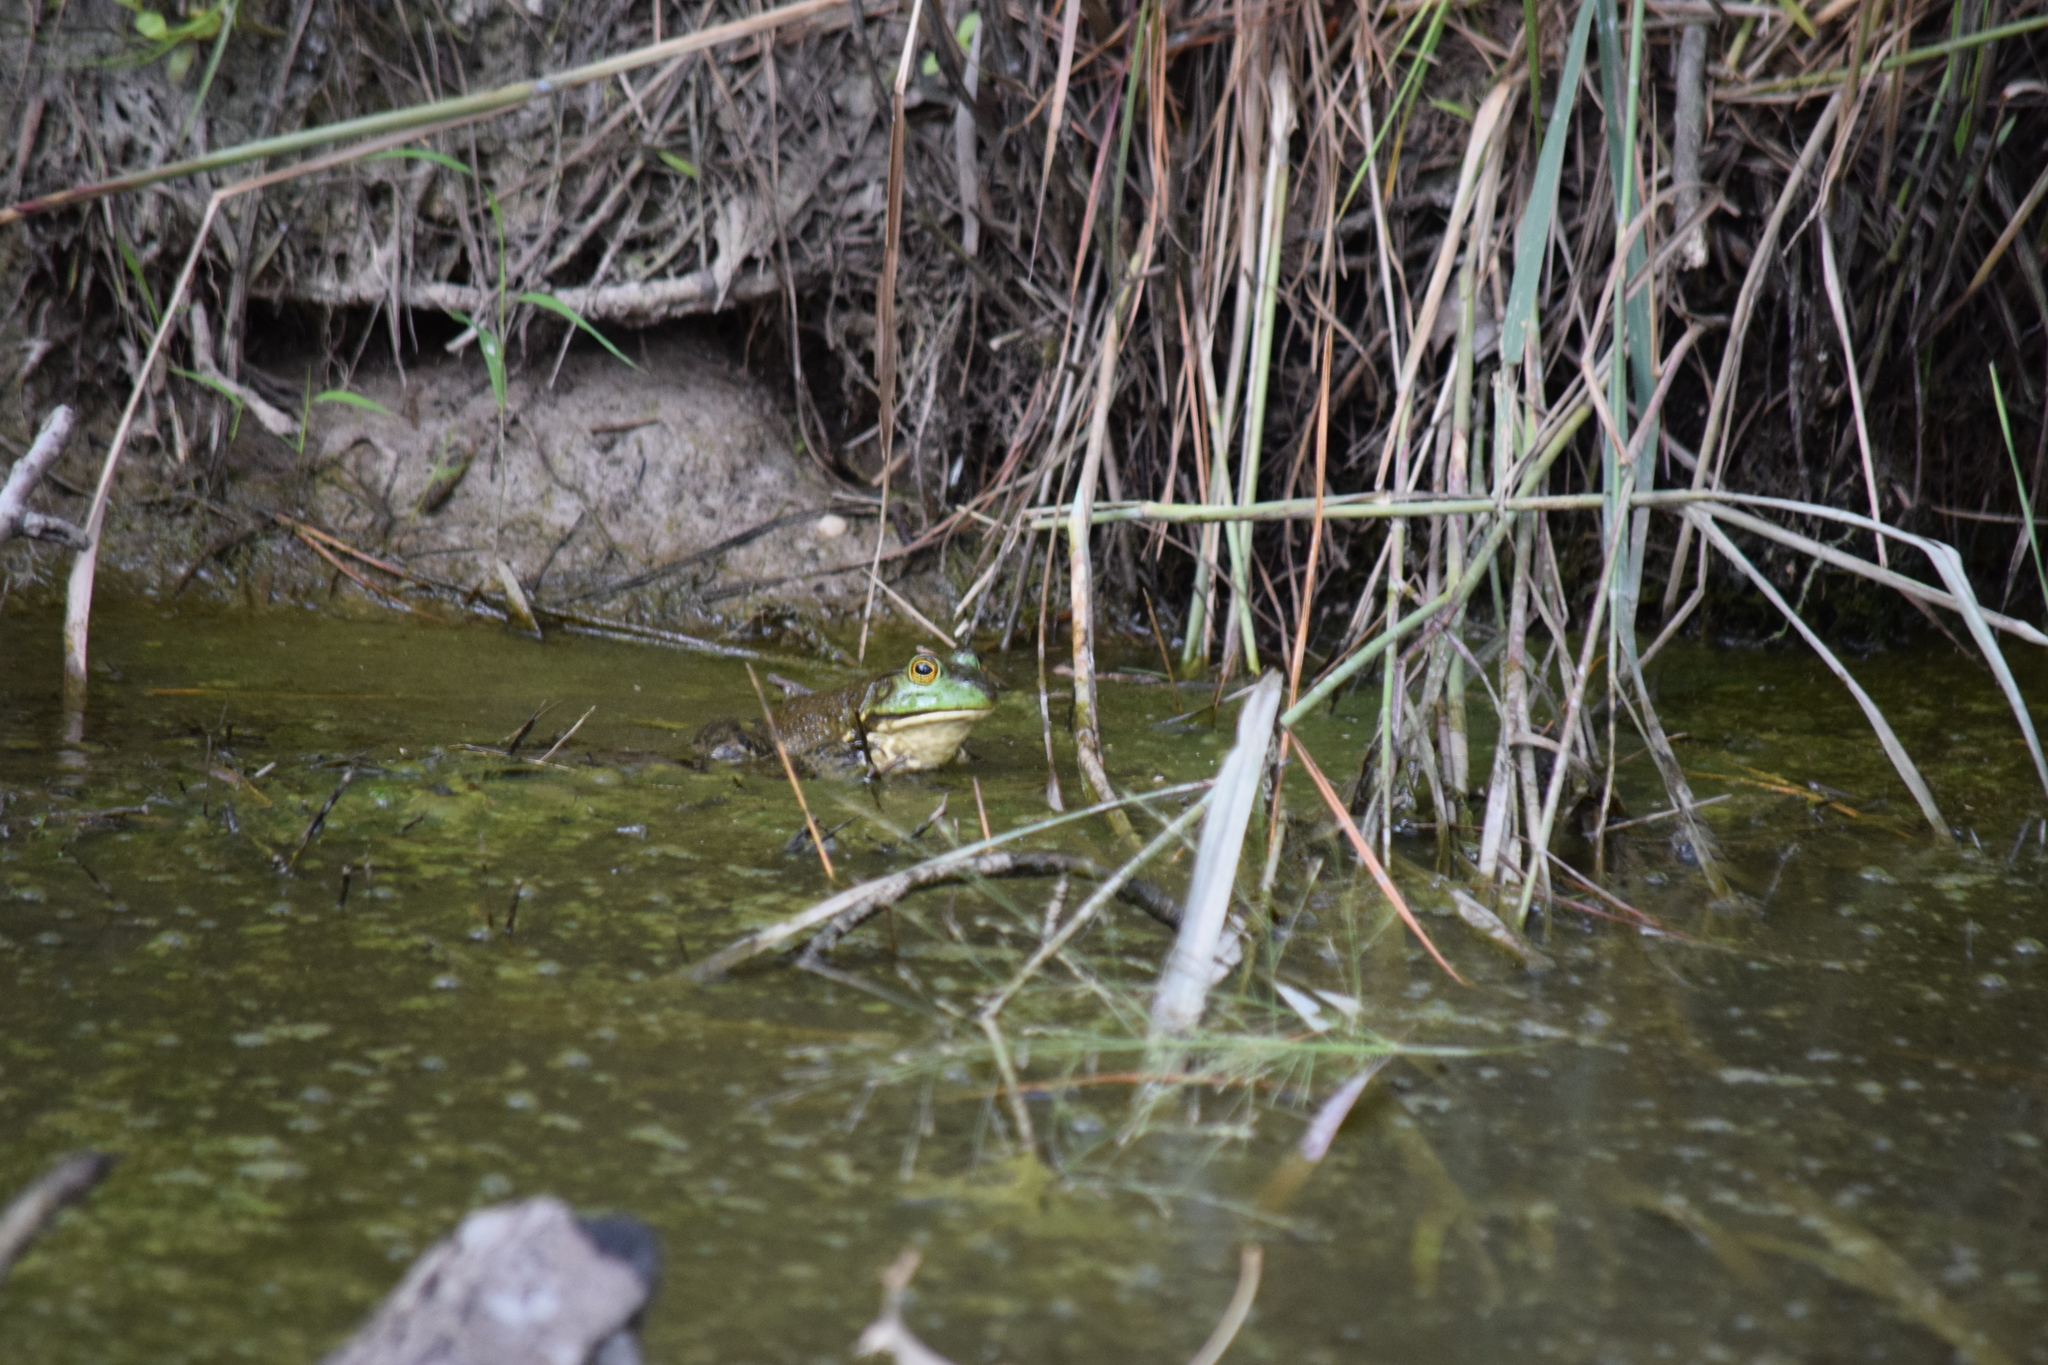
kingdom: Animalia
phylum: Chordata
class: Amphibia
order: Anura
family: Ranidae
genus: Lithobates
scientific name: Lithobates catesbeianus
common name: American bullfrog
